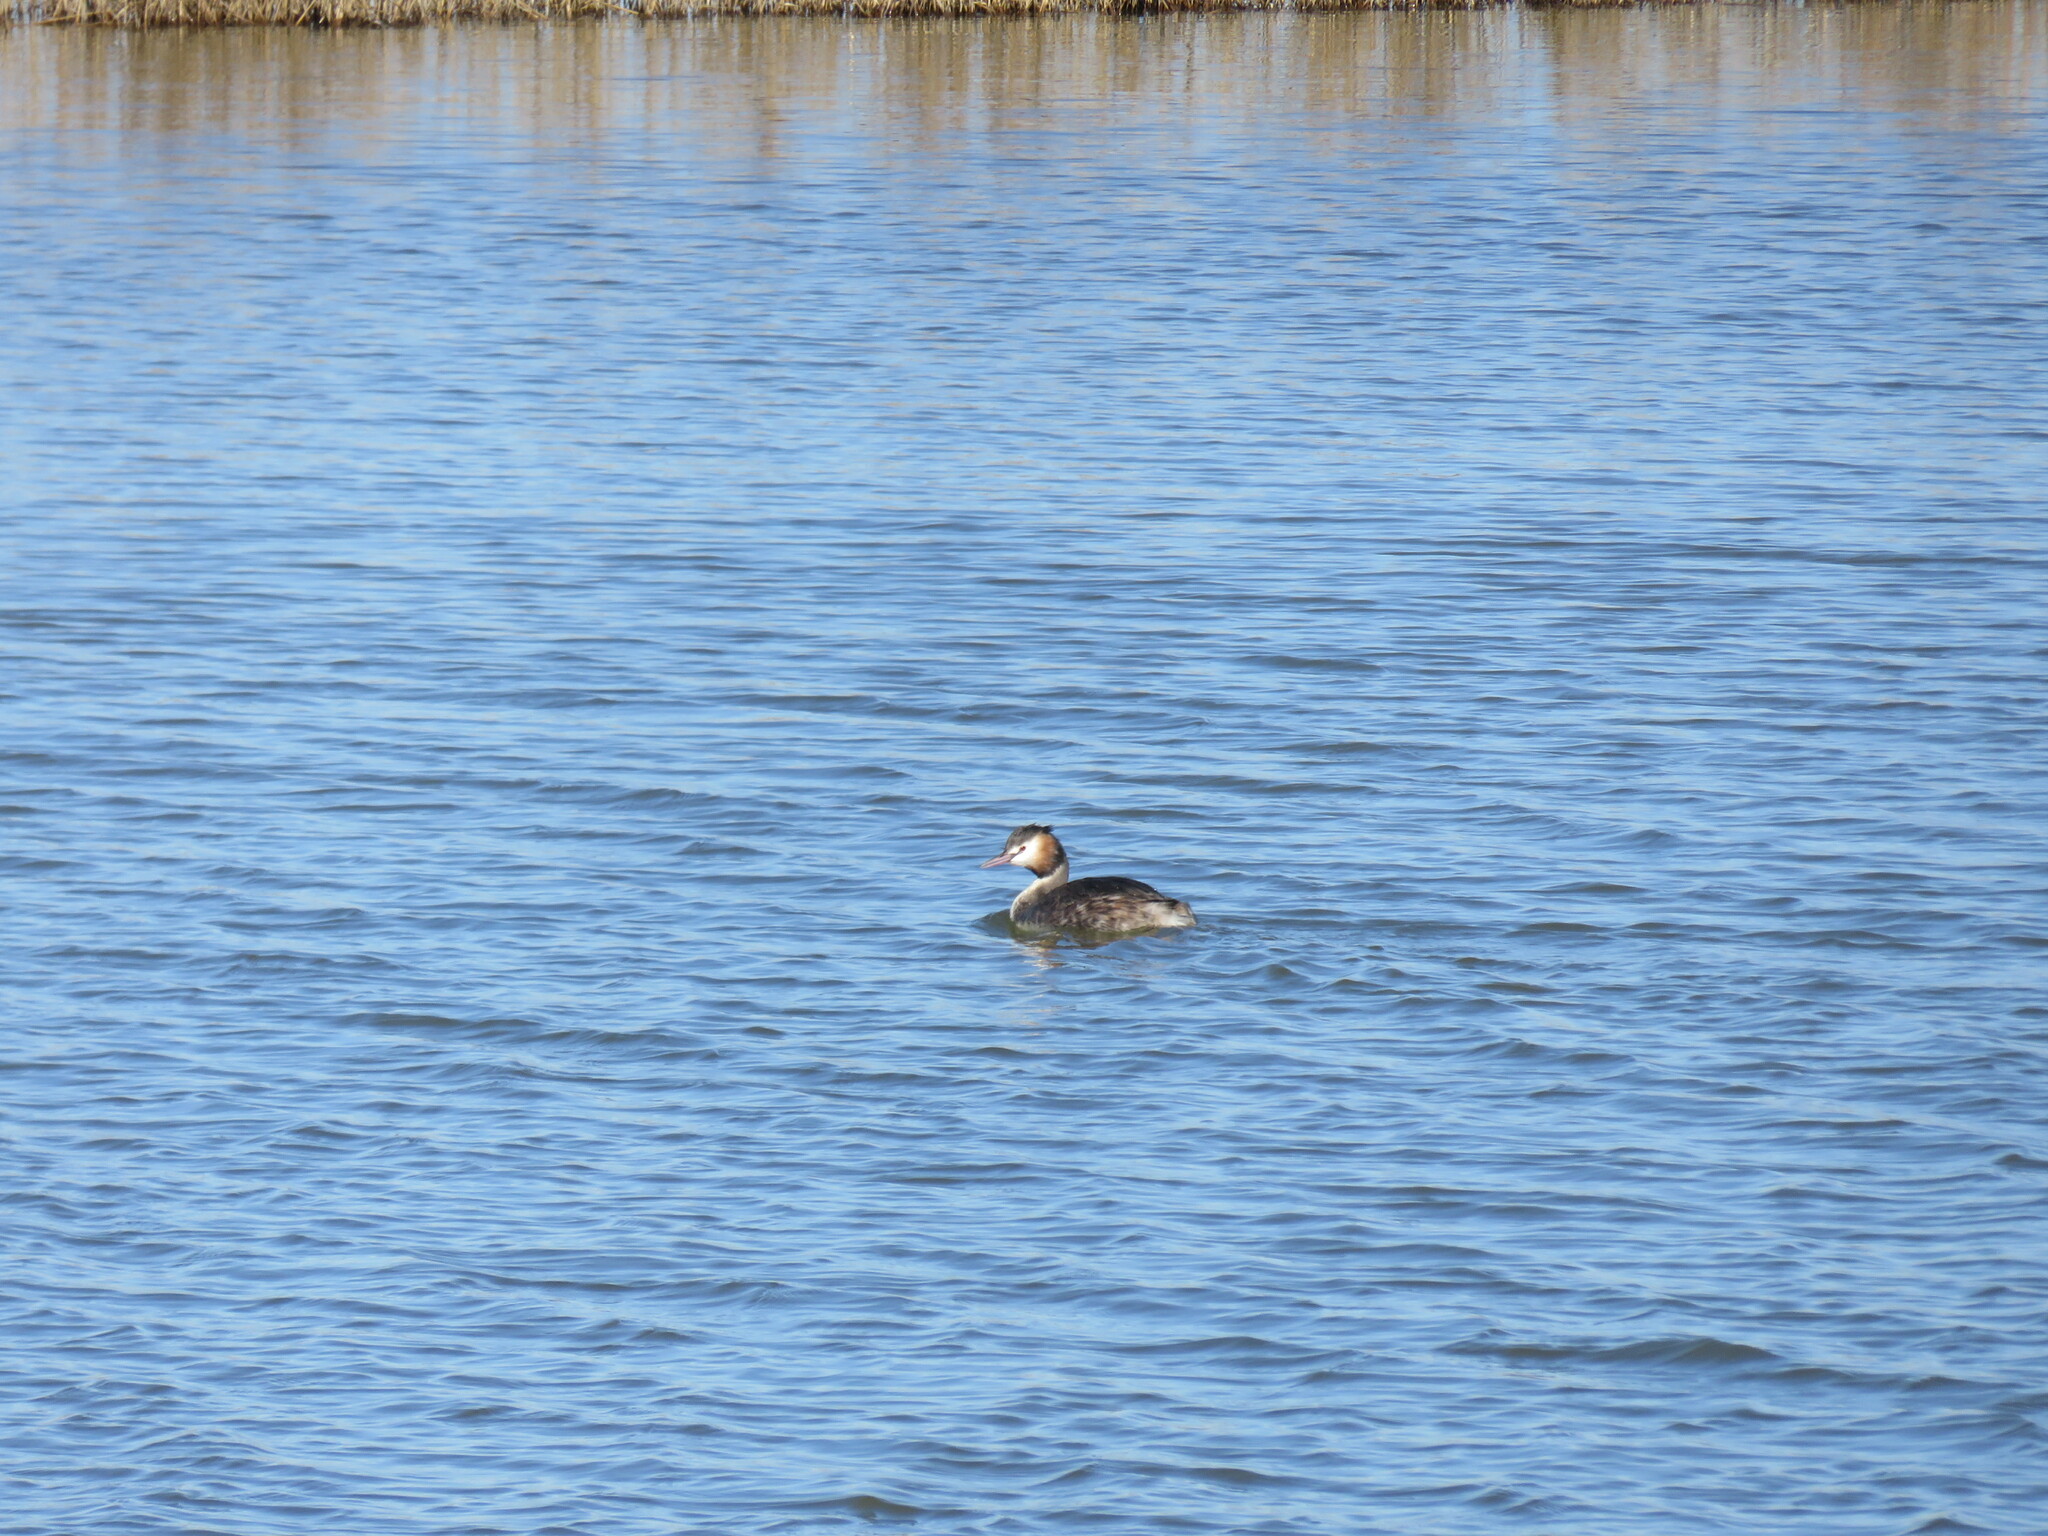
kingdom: Animalia
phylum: Chordata
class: Aves
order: Podicipediformes
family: Podicipedidae
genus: Podiceps
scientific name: Podiceps cristatus
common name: Great crested grebe
